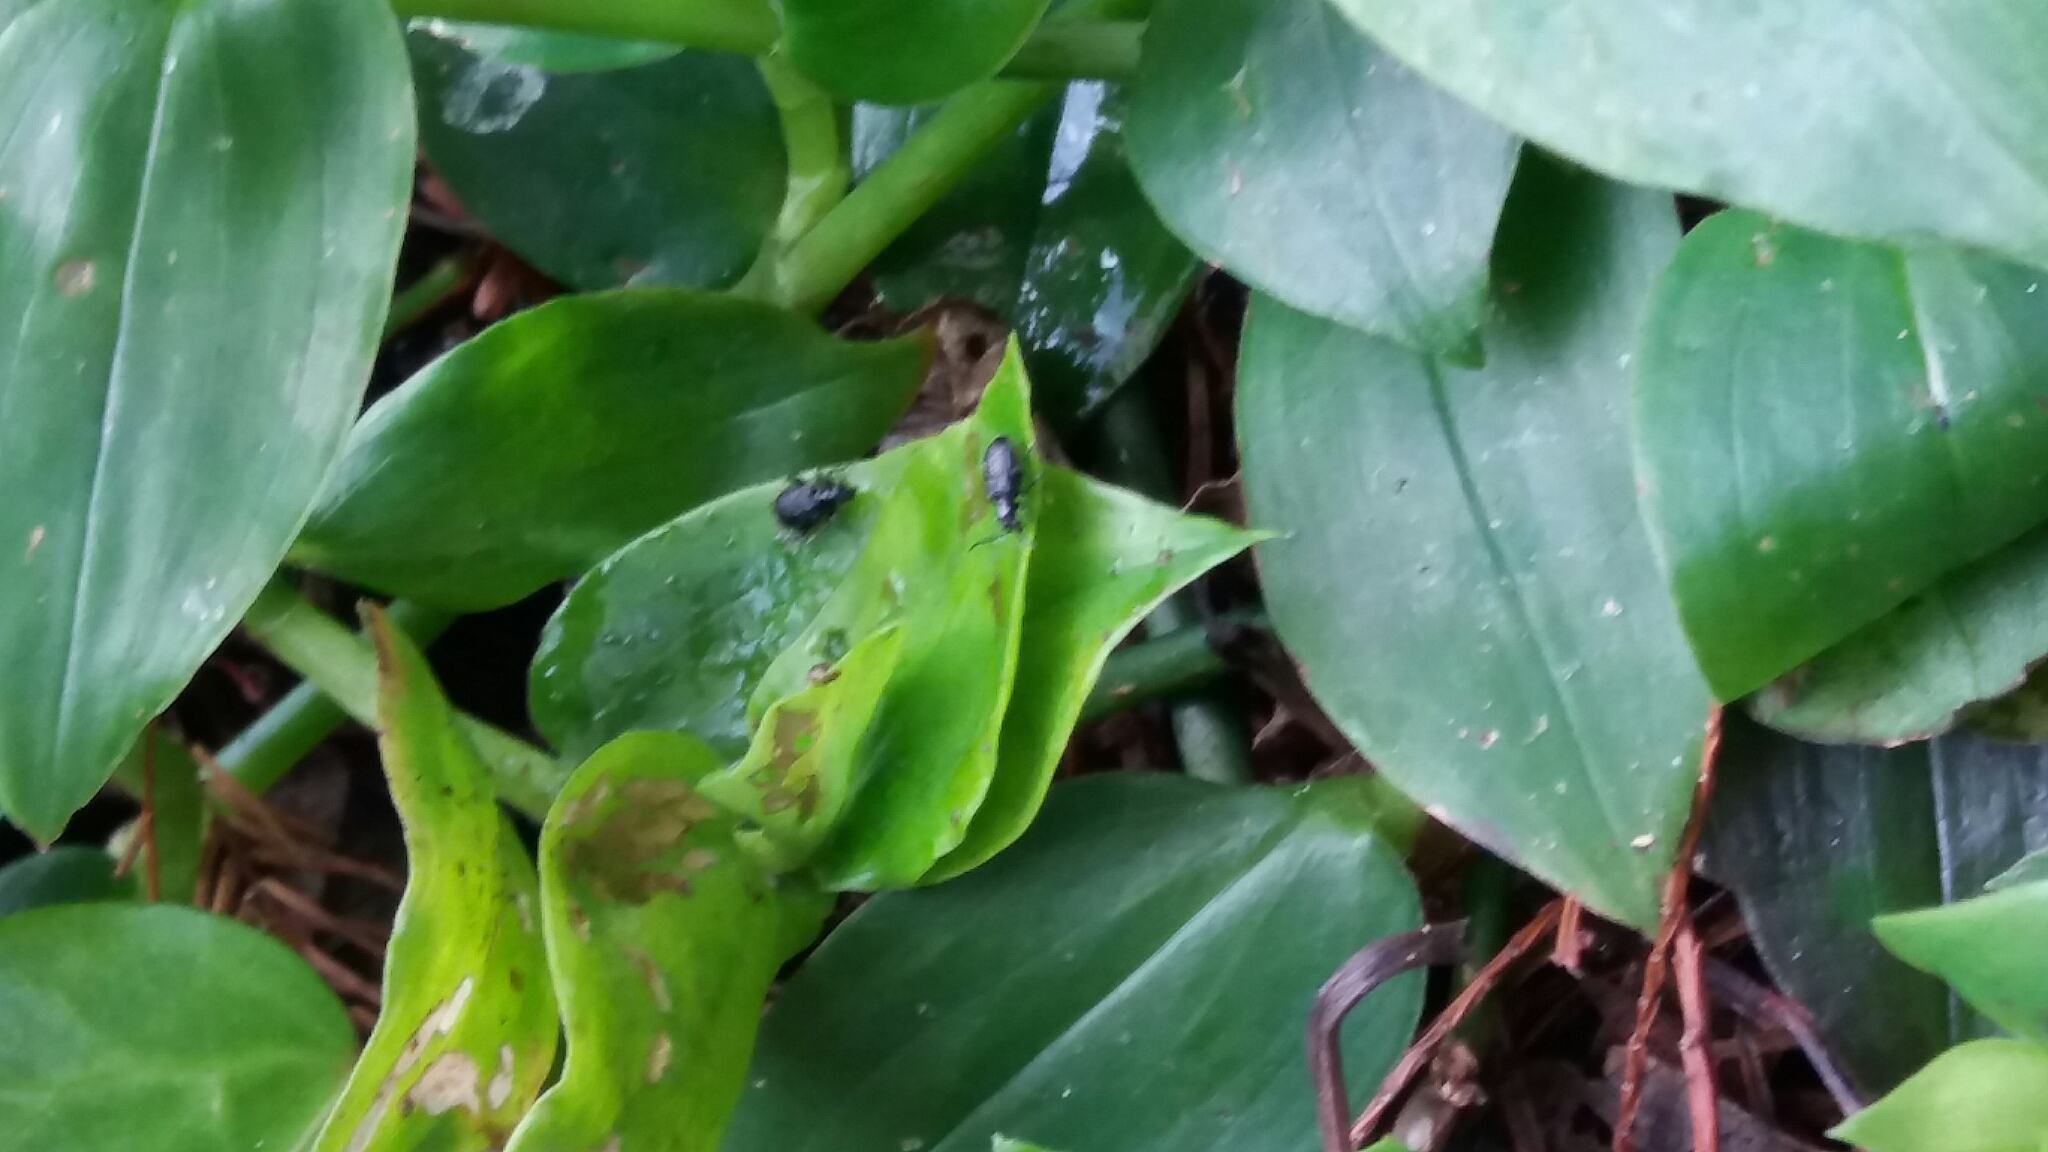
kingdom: Plantae
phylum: Tracheophyta
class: Liliopsida
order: Commelinales
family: Commelinaceae
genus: Tradescantia
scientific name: Tradescantia fluminensis
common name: Wandering-jew
